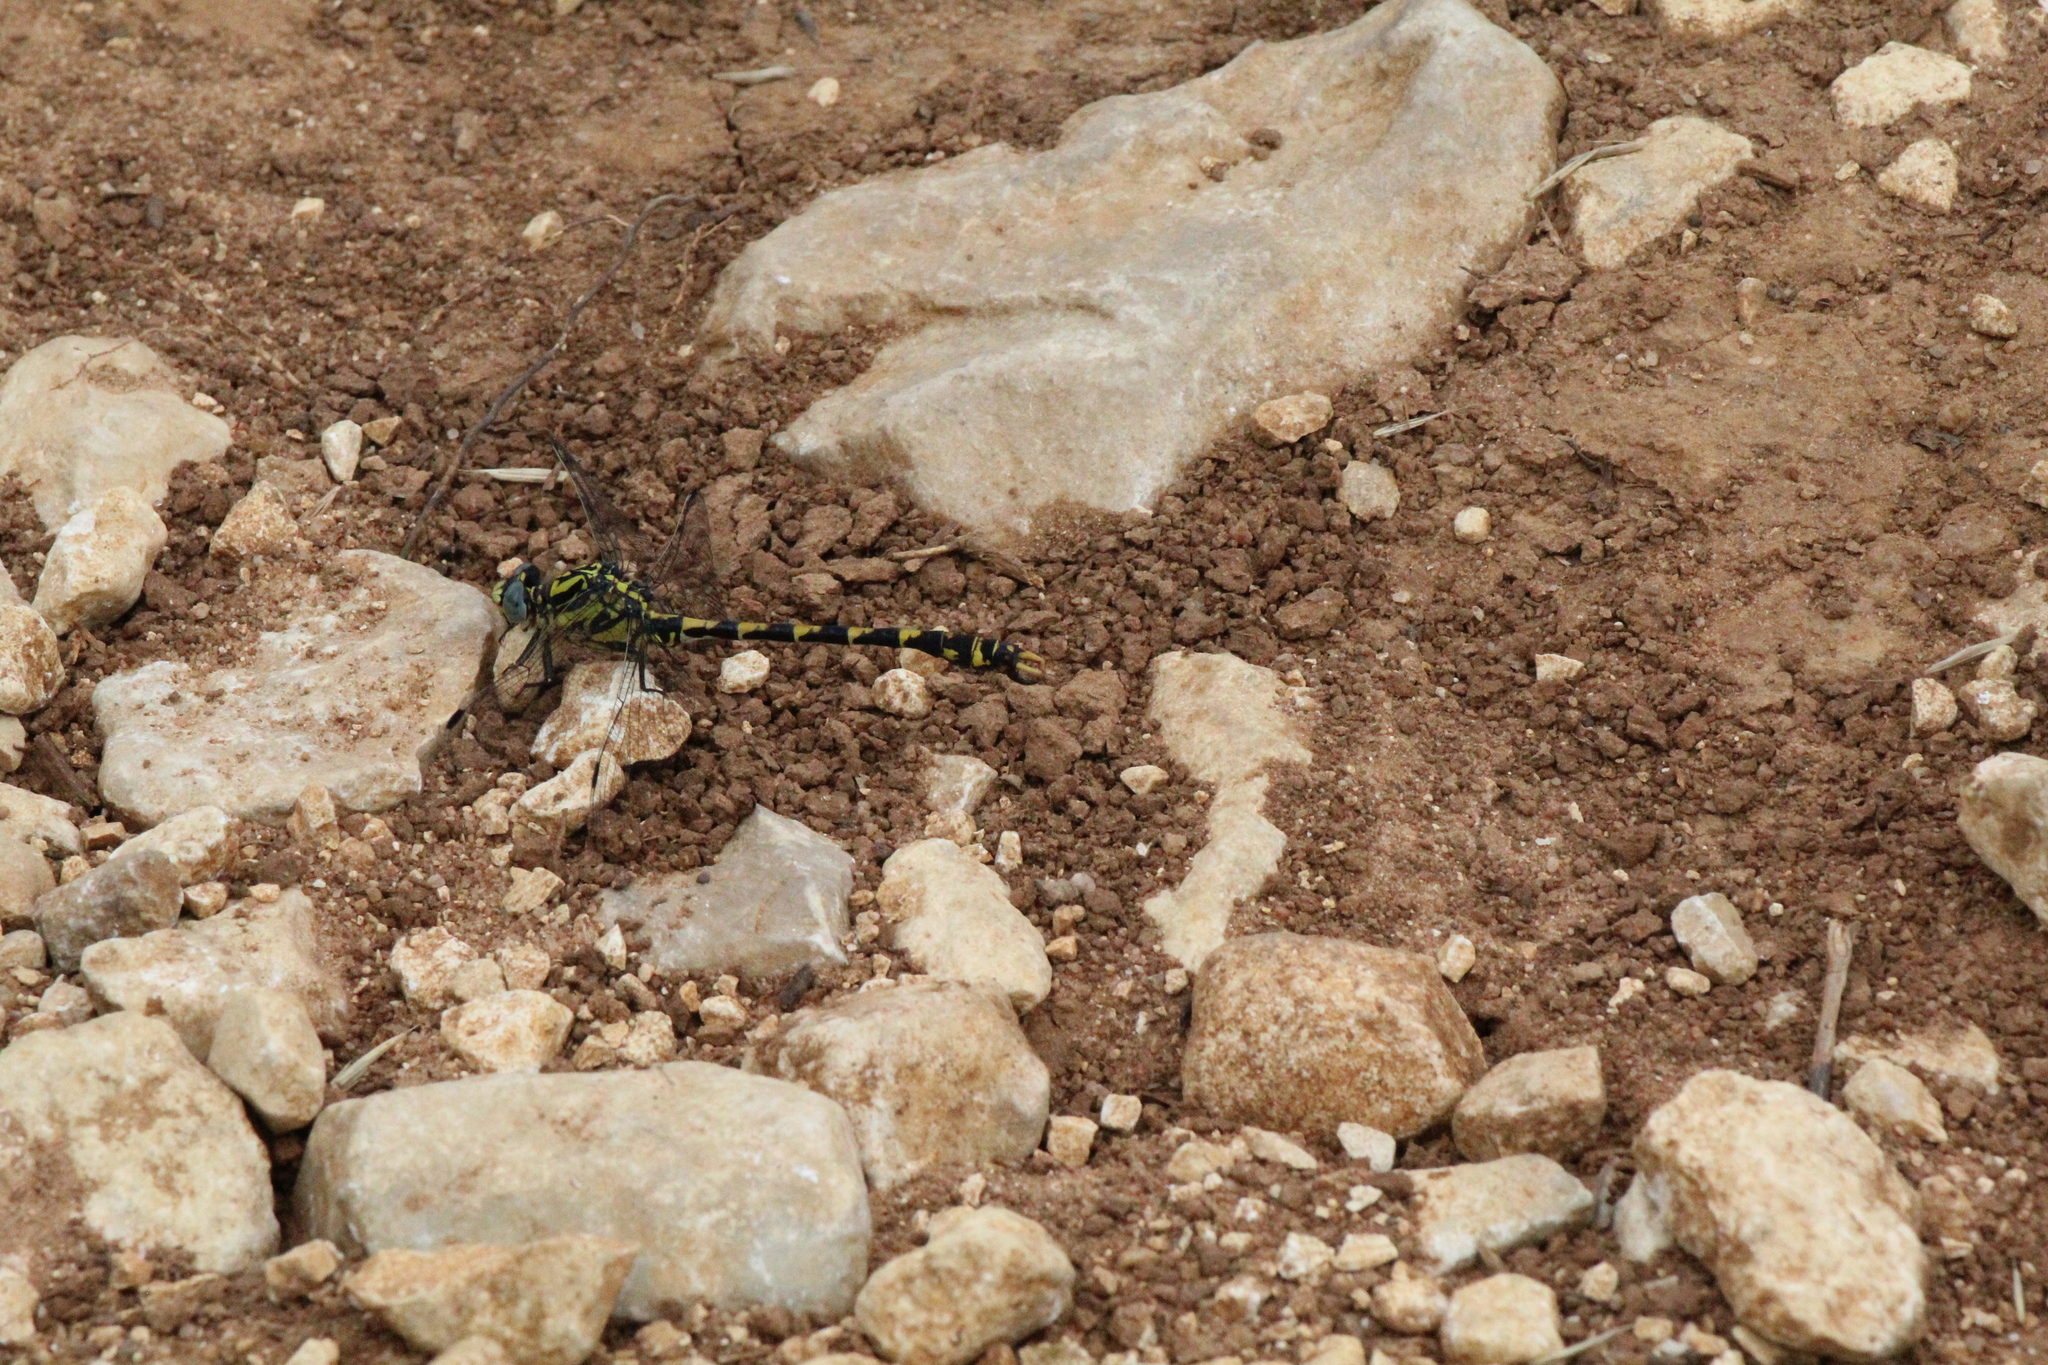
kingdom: Animalia
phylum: Arthropoda
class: Insecta
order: Odonata
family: Gomphidae
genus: Onychogomphus
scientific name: Onychogomphus uncatus
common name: Large pincertail
